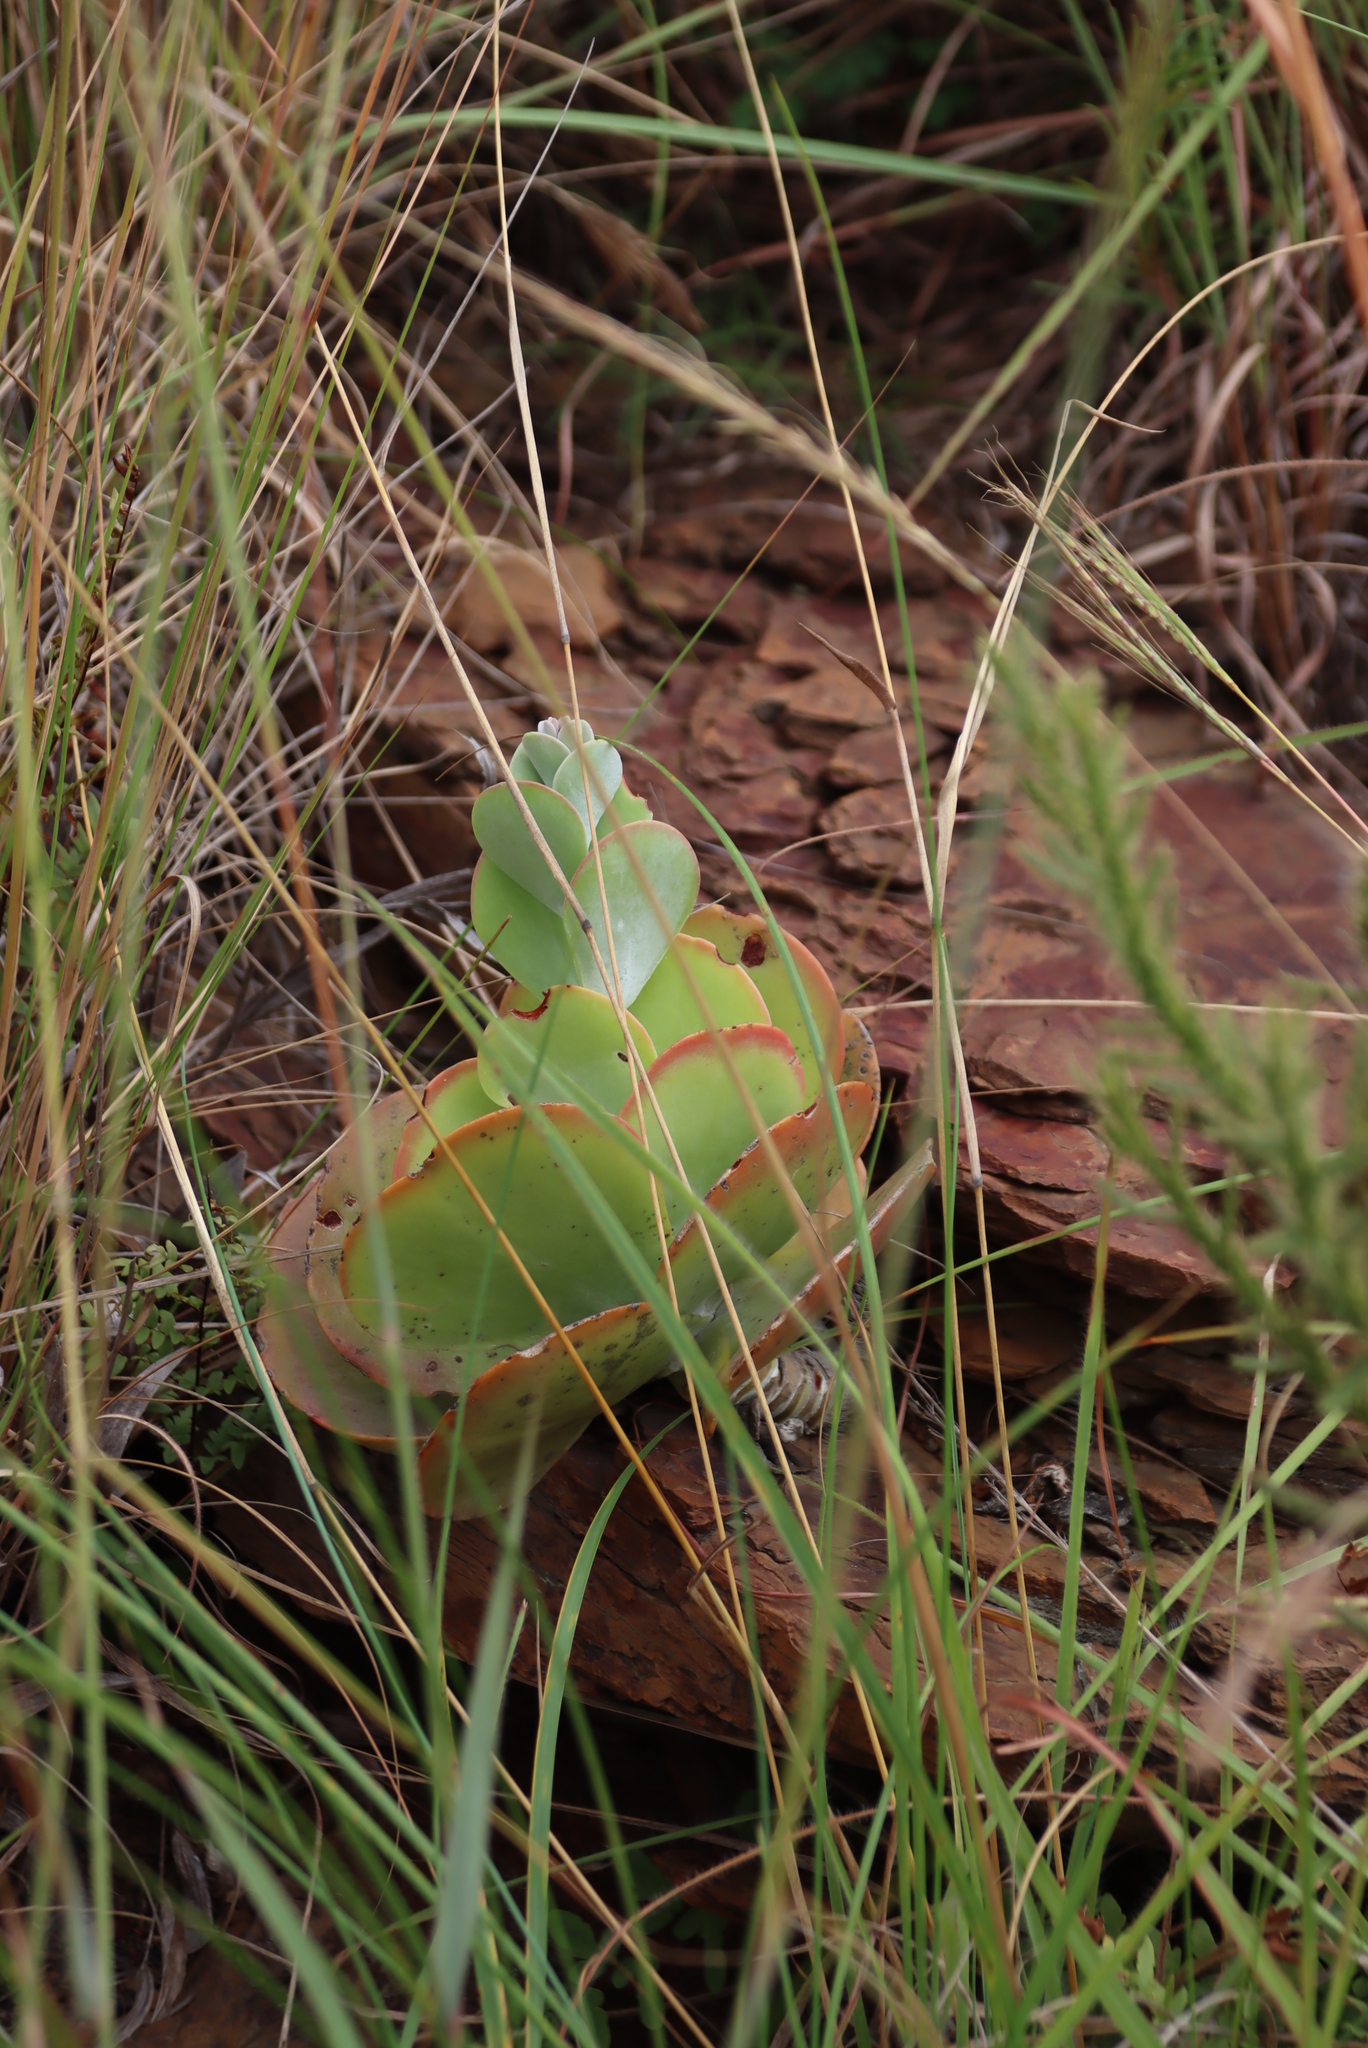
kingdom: Plantae
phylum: Tracheophyta
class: Magnoliopsida
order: Saxifragales
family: Crassulaceae
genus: Kalanchoe
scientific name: Kalanchoe thyrsiflora
